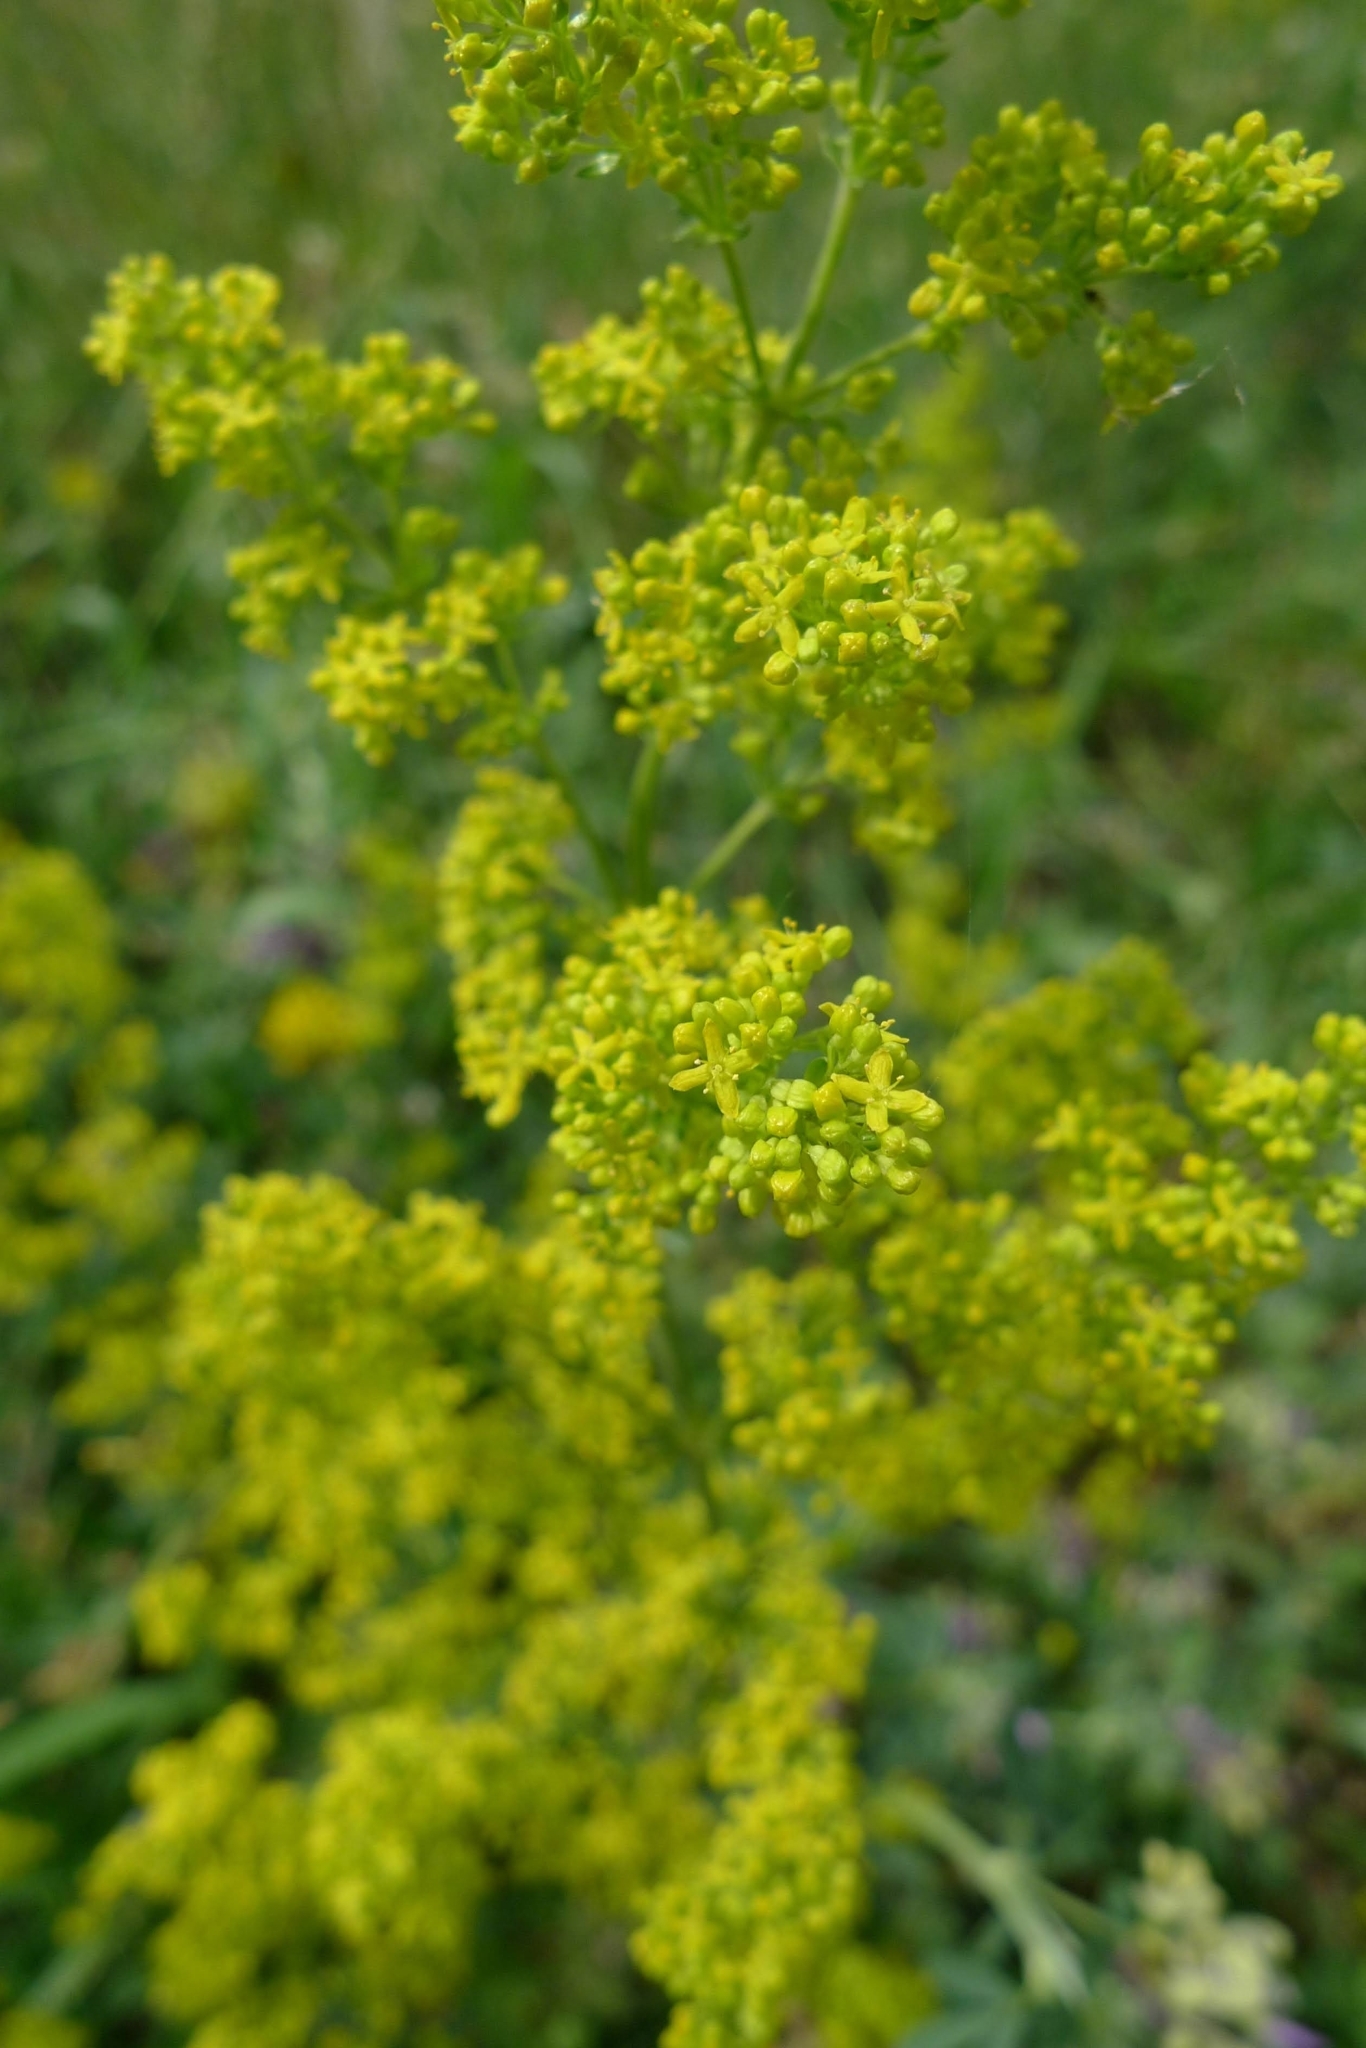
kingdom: Plantae
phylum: Tracheophyta
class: Magnoliopsida
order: Gentianales
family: Rubiaceae
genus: Galium
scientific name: Galium verum
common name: Lady's bedstraw
